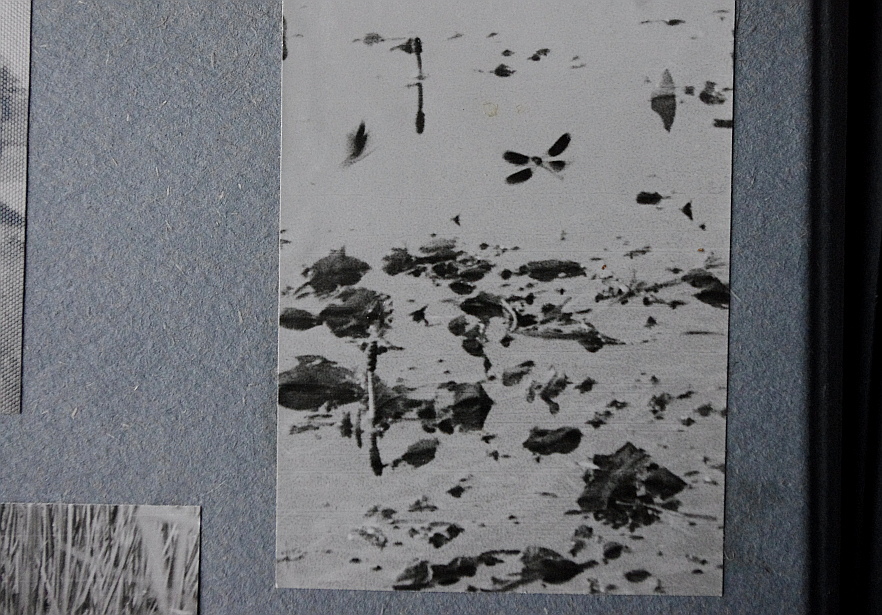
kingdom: Animalia
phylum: Arthropoda
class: Insecta
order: Odonata
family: Calopterygidae
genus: Calopteryx
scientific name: Calopteryx splendens
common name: Banded demoiselle
